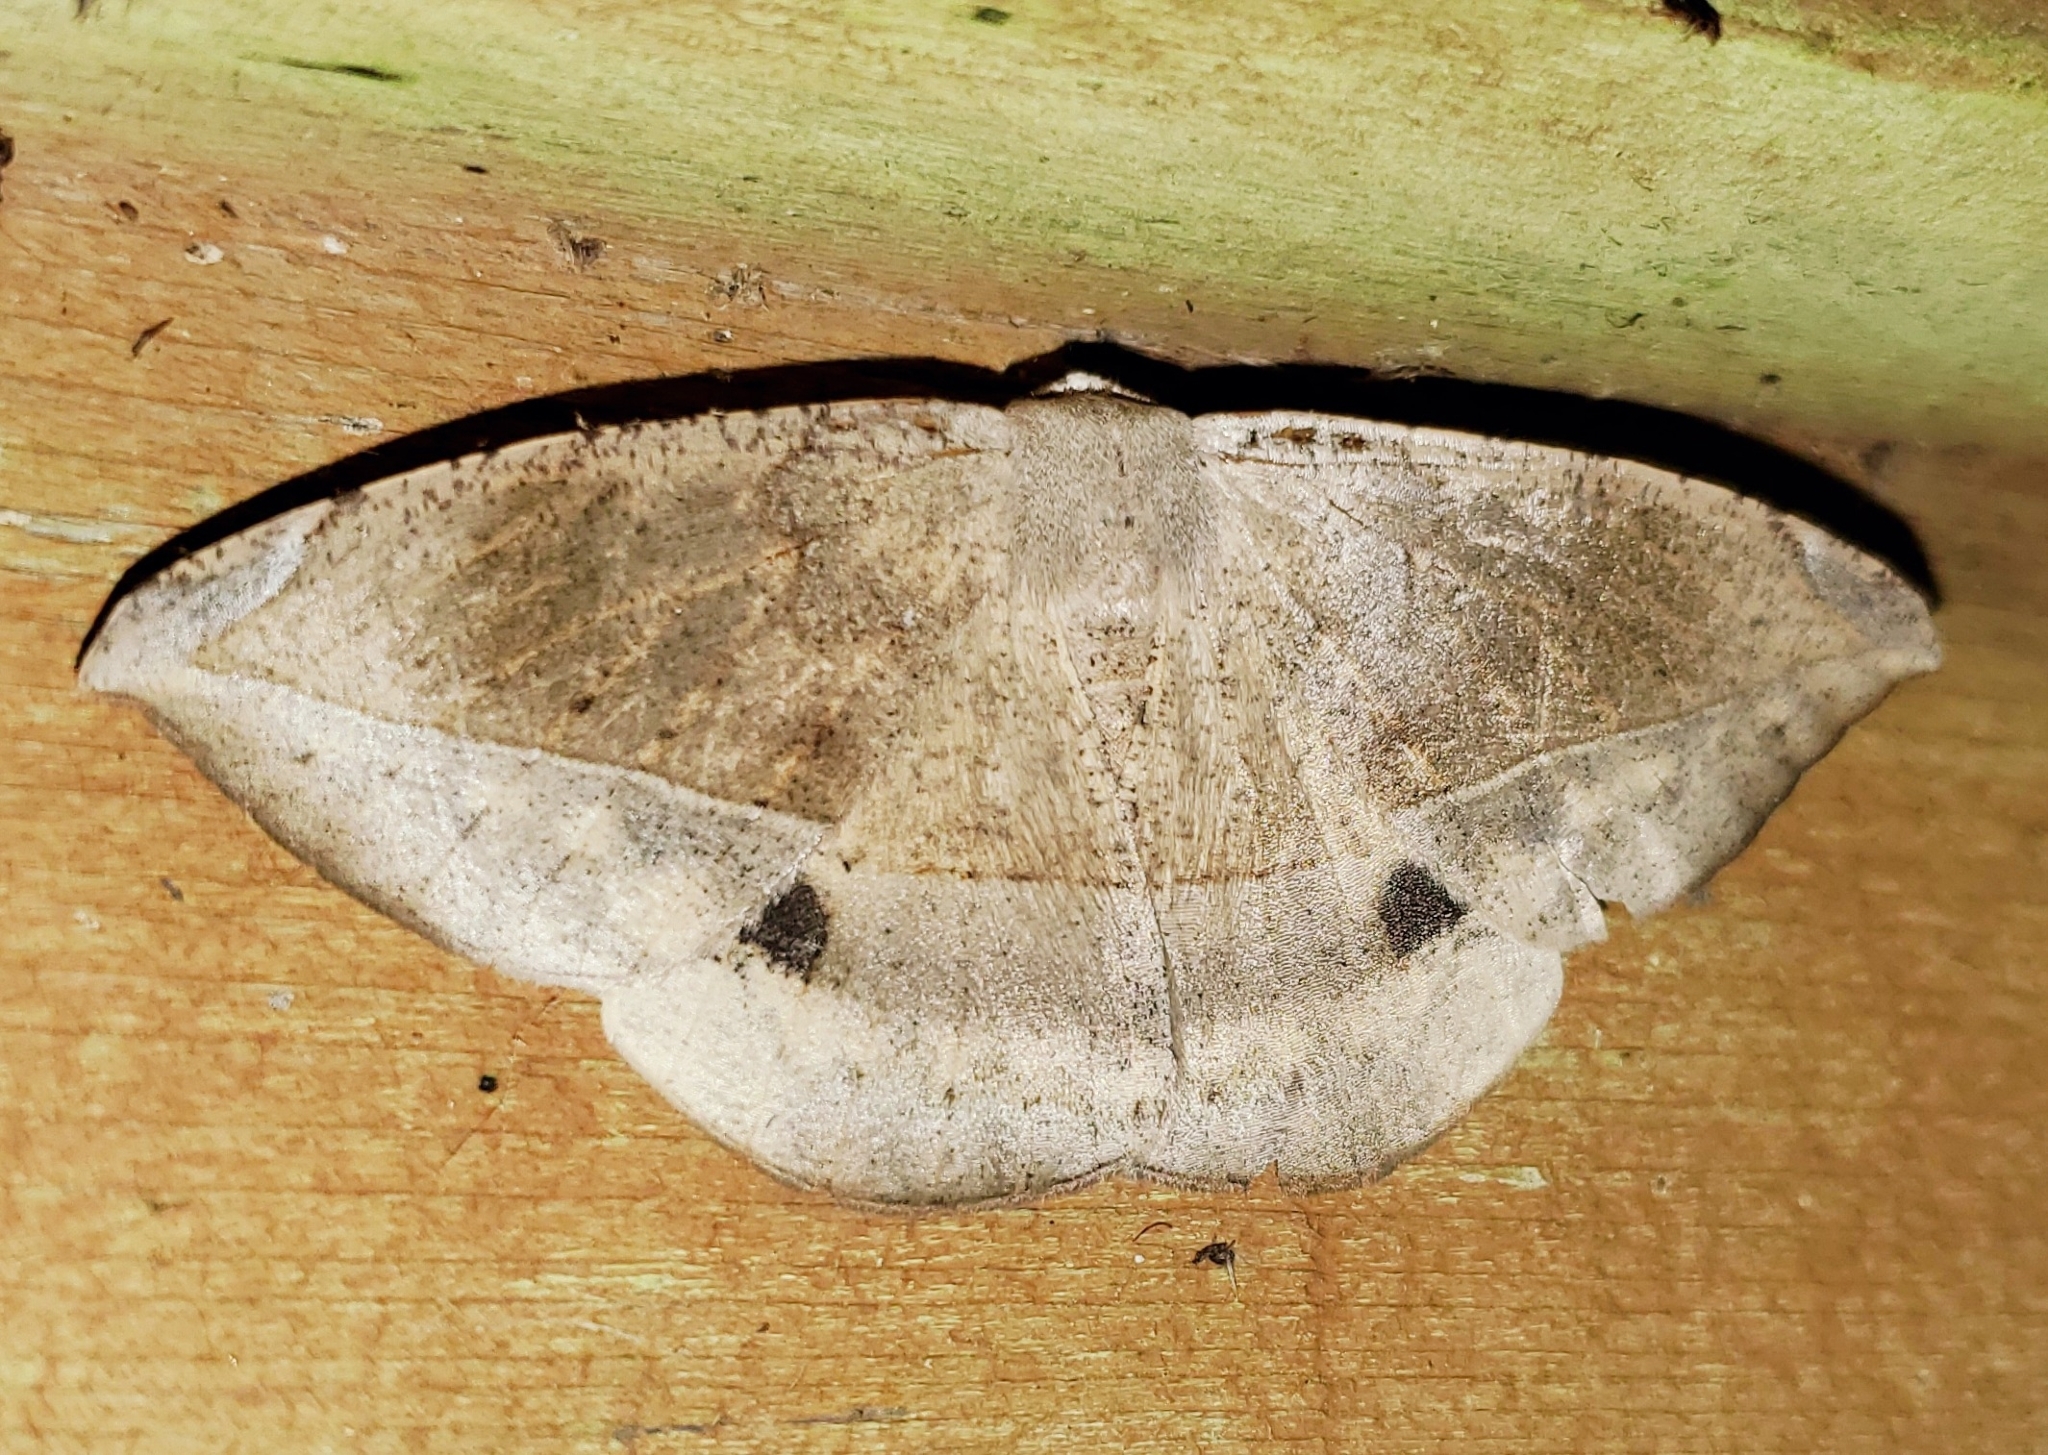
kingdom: Animalia
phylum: Arthropoda
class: Insecta
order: Lepidoptera
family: Geometridae
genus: Oxydia
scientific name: Oxydia vesulia
